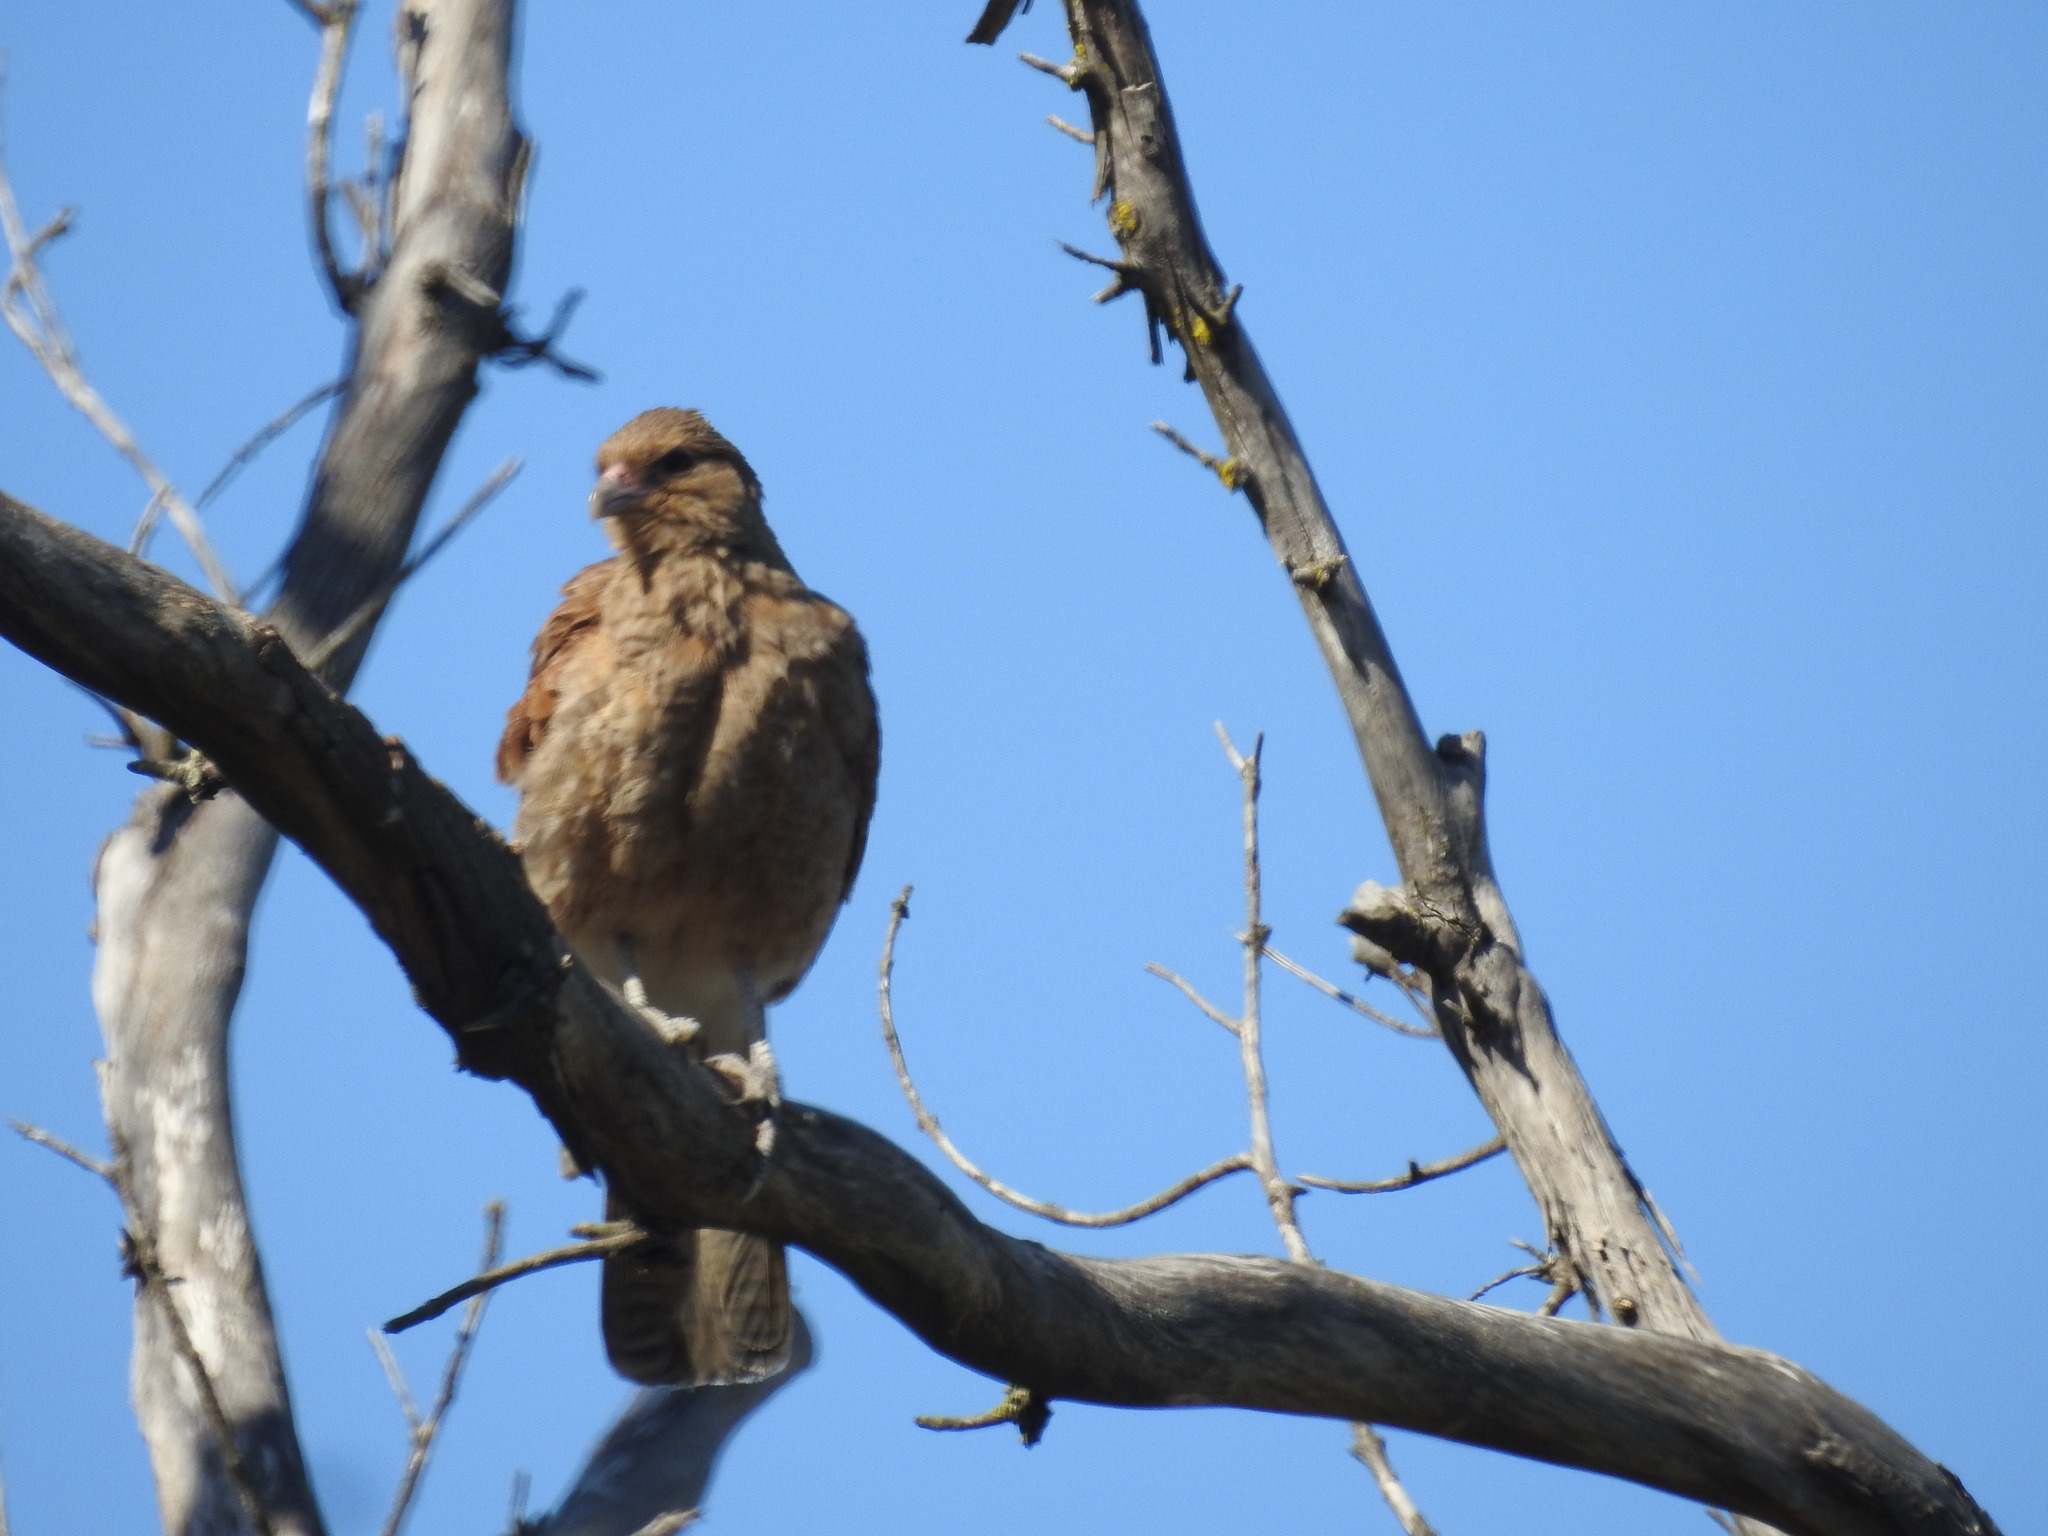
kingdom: Animalia
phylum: Chordata
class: Aves
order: Falconiformes
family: Falconidae
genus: Daptrius
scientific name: Daptrius
